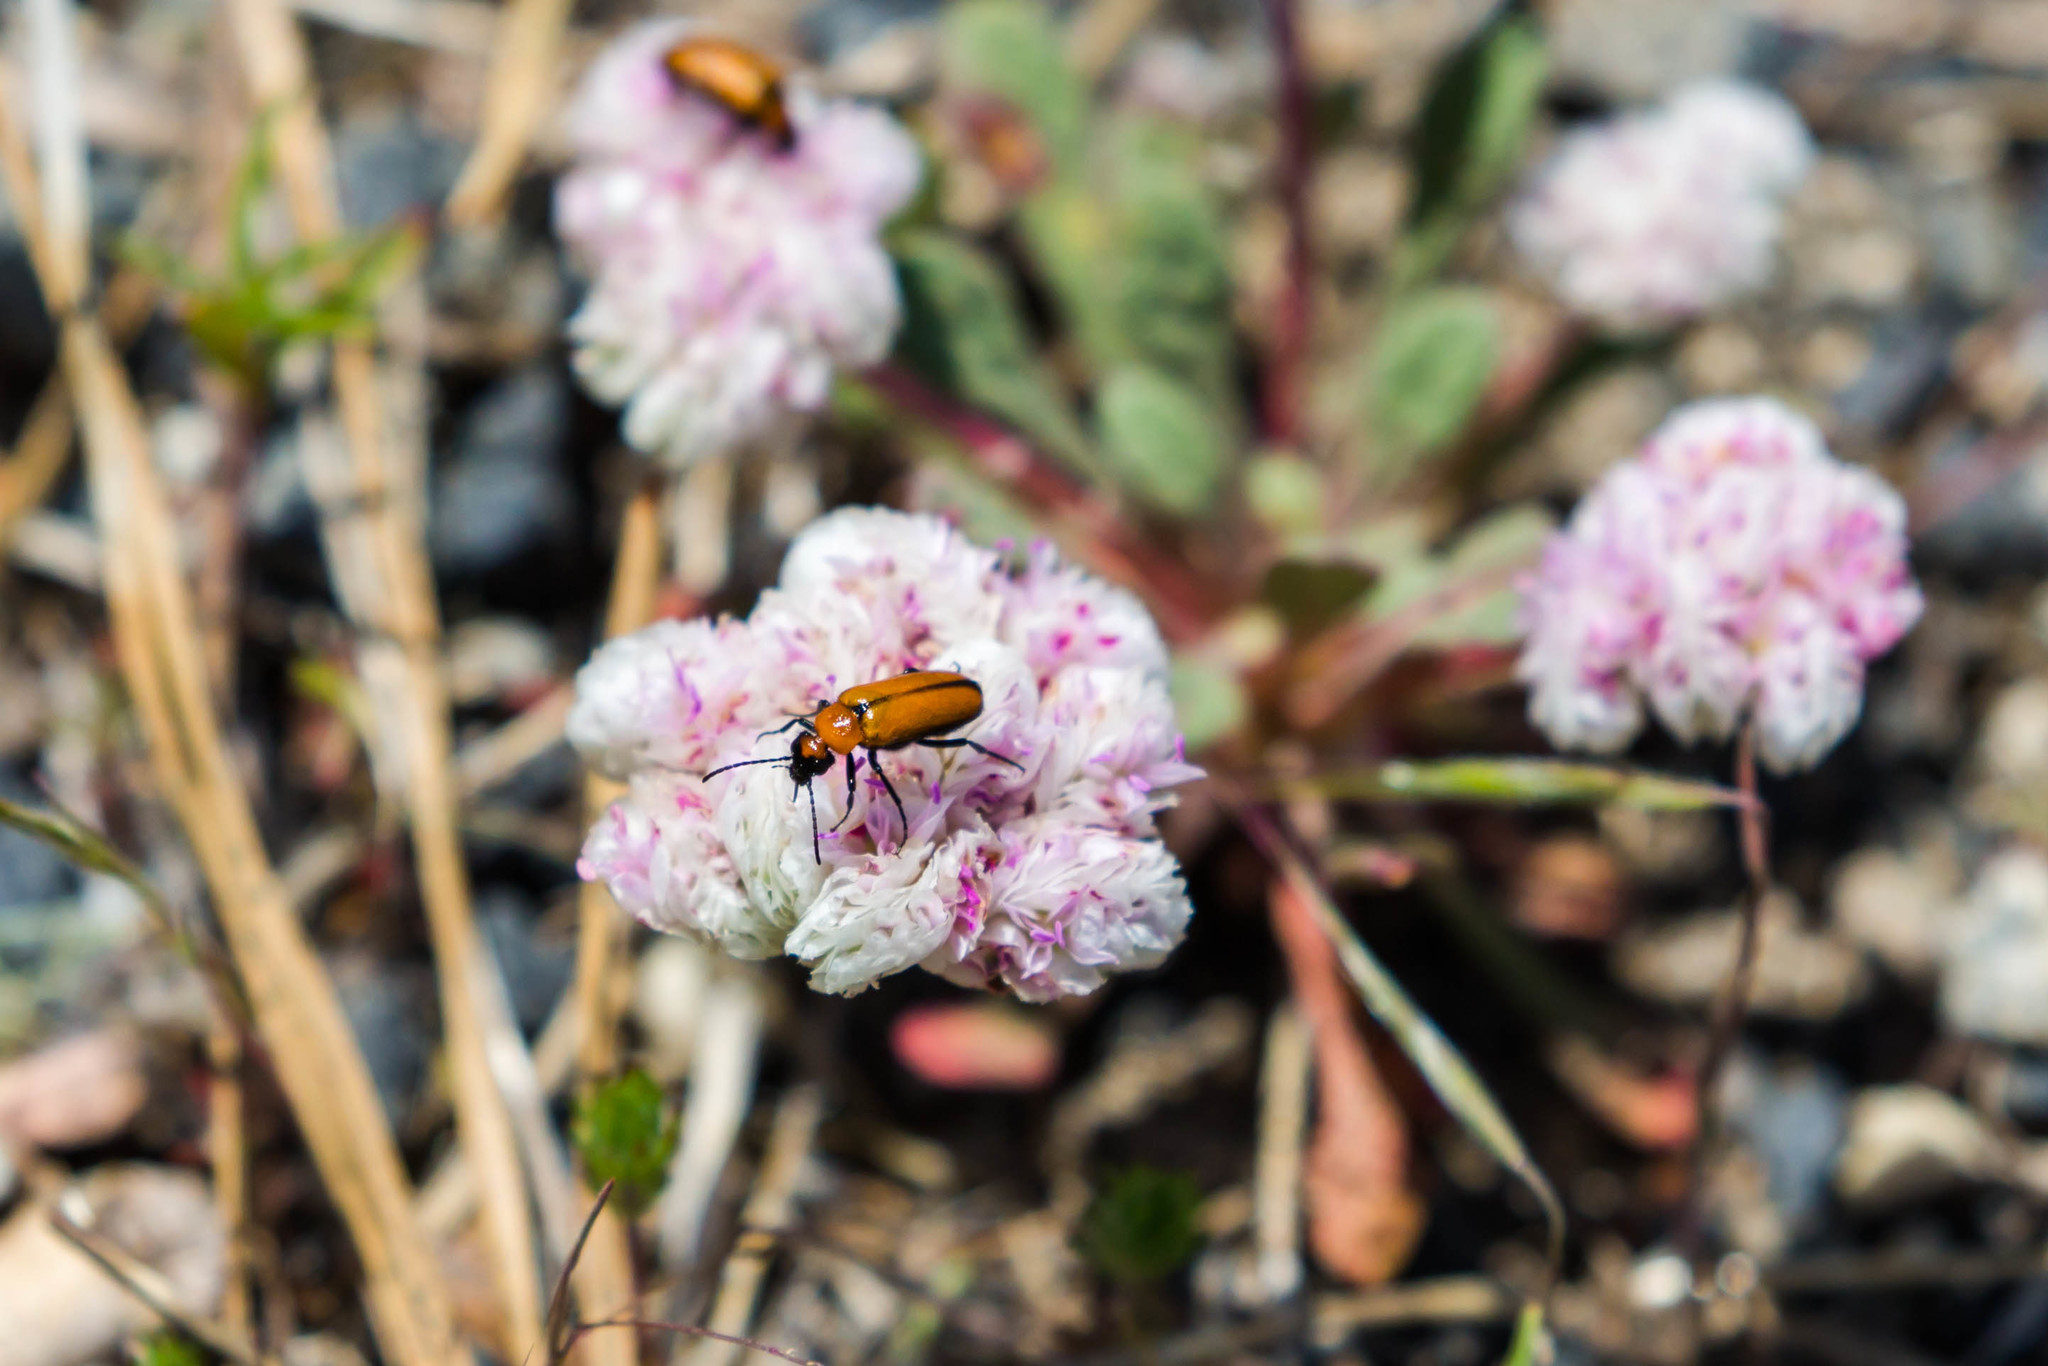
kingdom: Animalia
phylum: Arthropoda
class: Insecta
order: Coleoptera
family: Meloidae
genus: Nemognatha
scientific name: Nemognatha scutellaris
